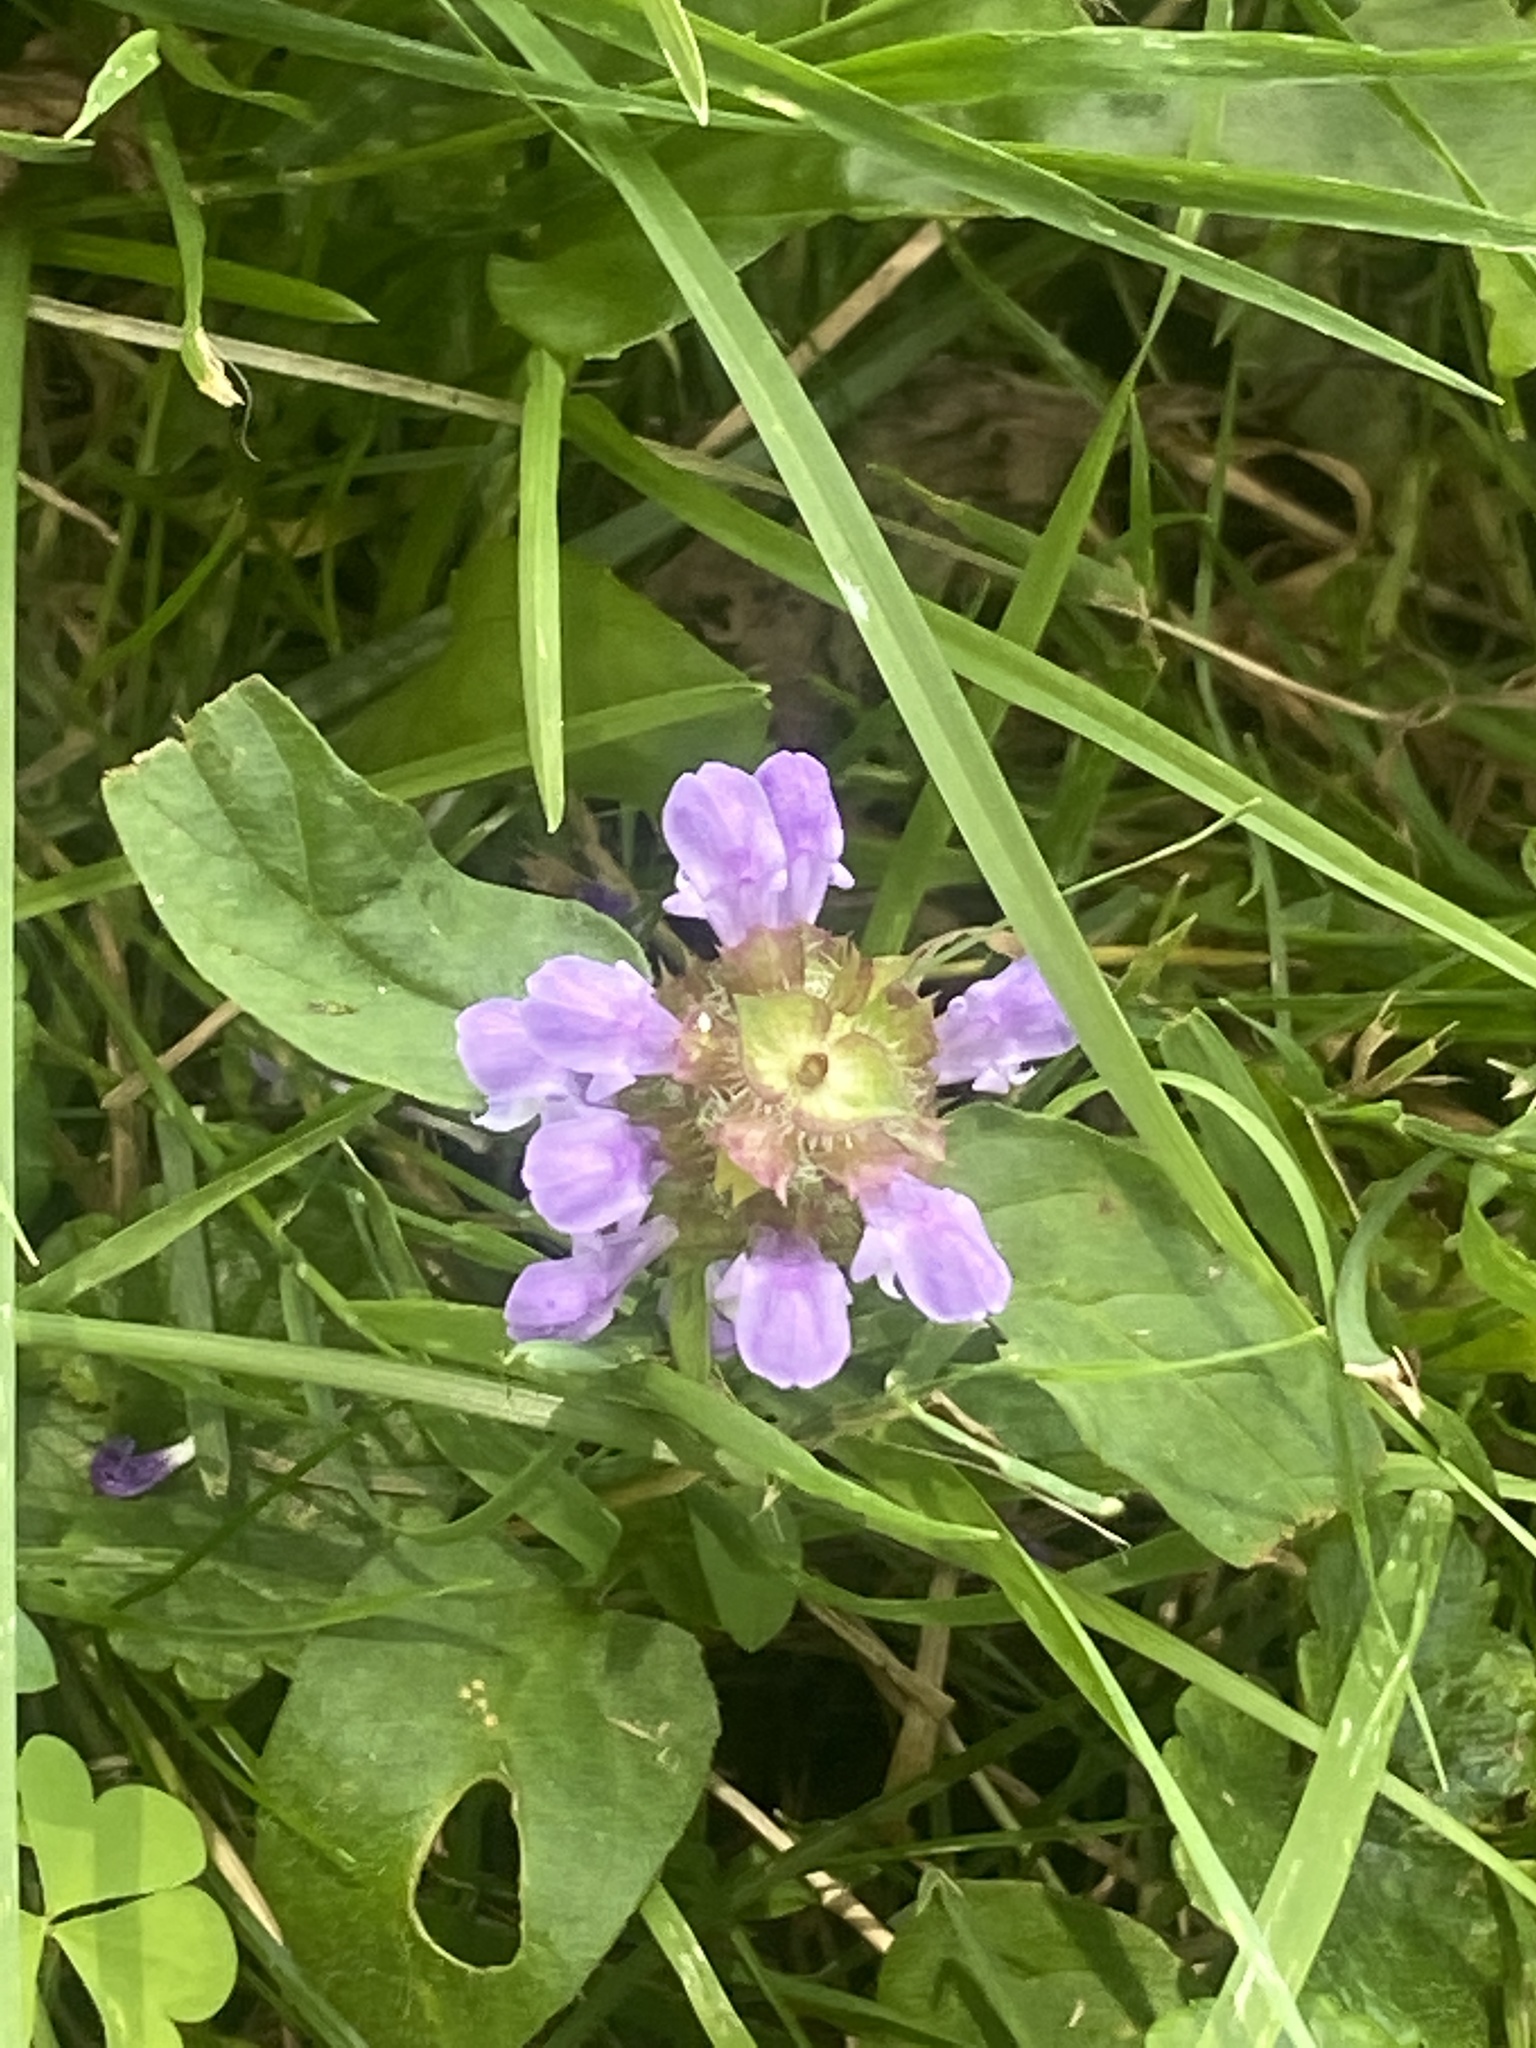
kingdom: Plantae
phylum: Tracheophyta
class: Magnoliopsida
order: Lamiales
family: Lamiaceae
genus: Prunella
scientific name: Prunella vulgaris
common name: Heal-all
